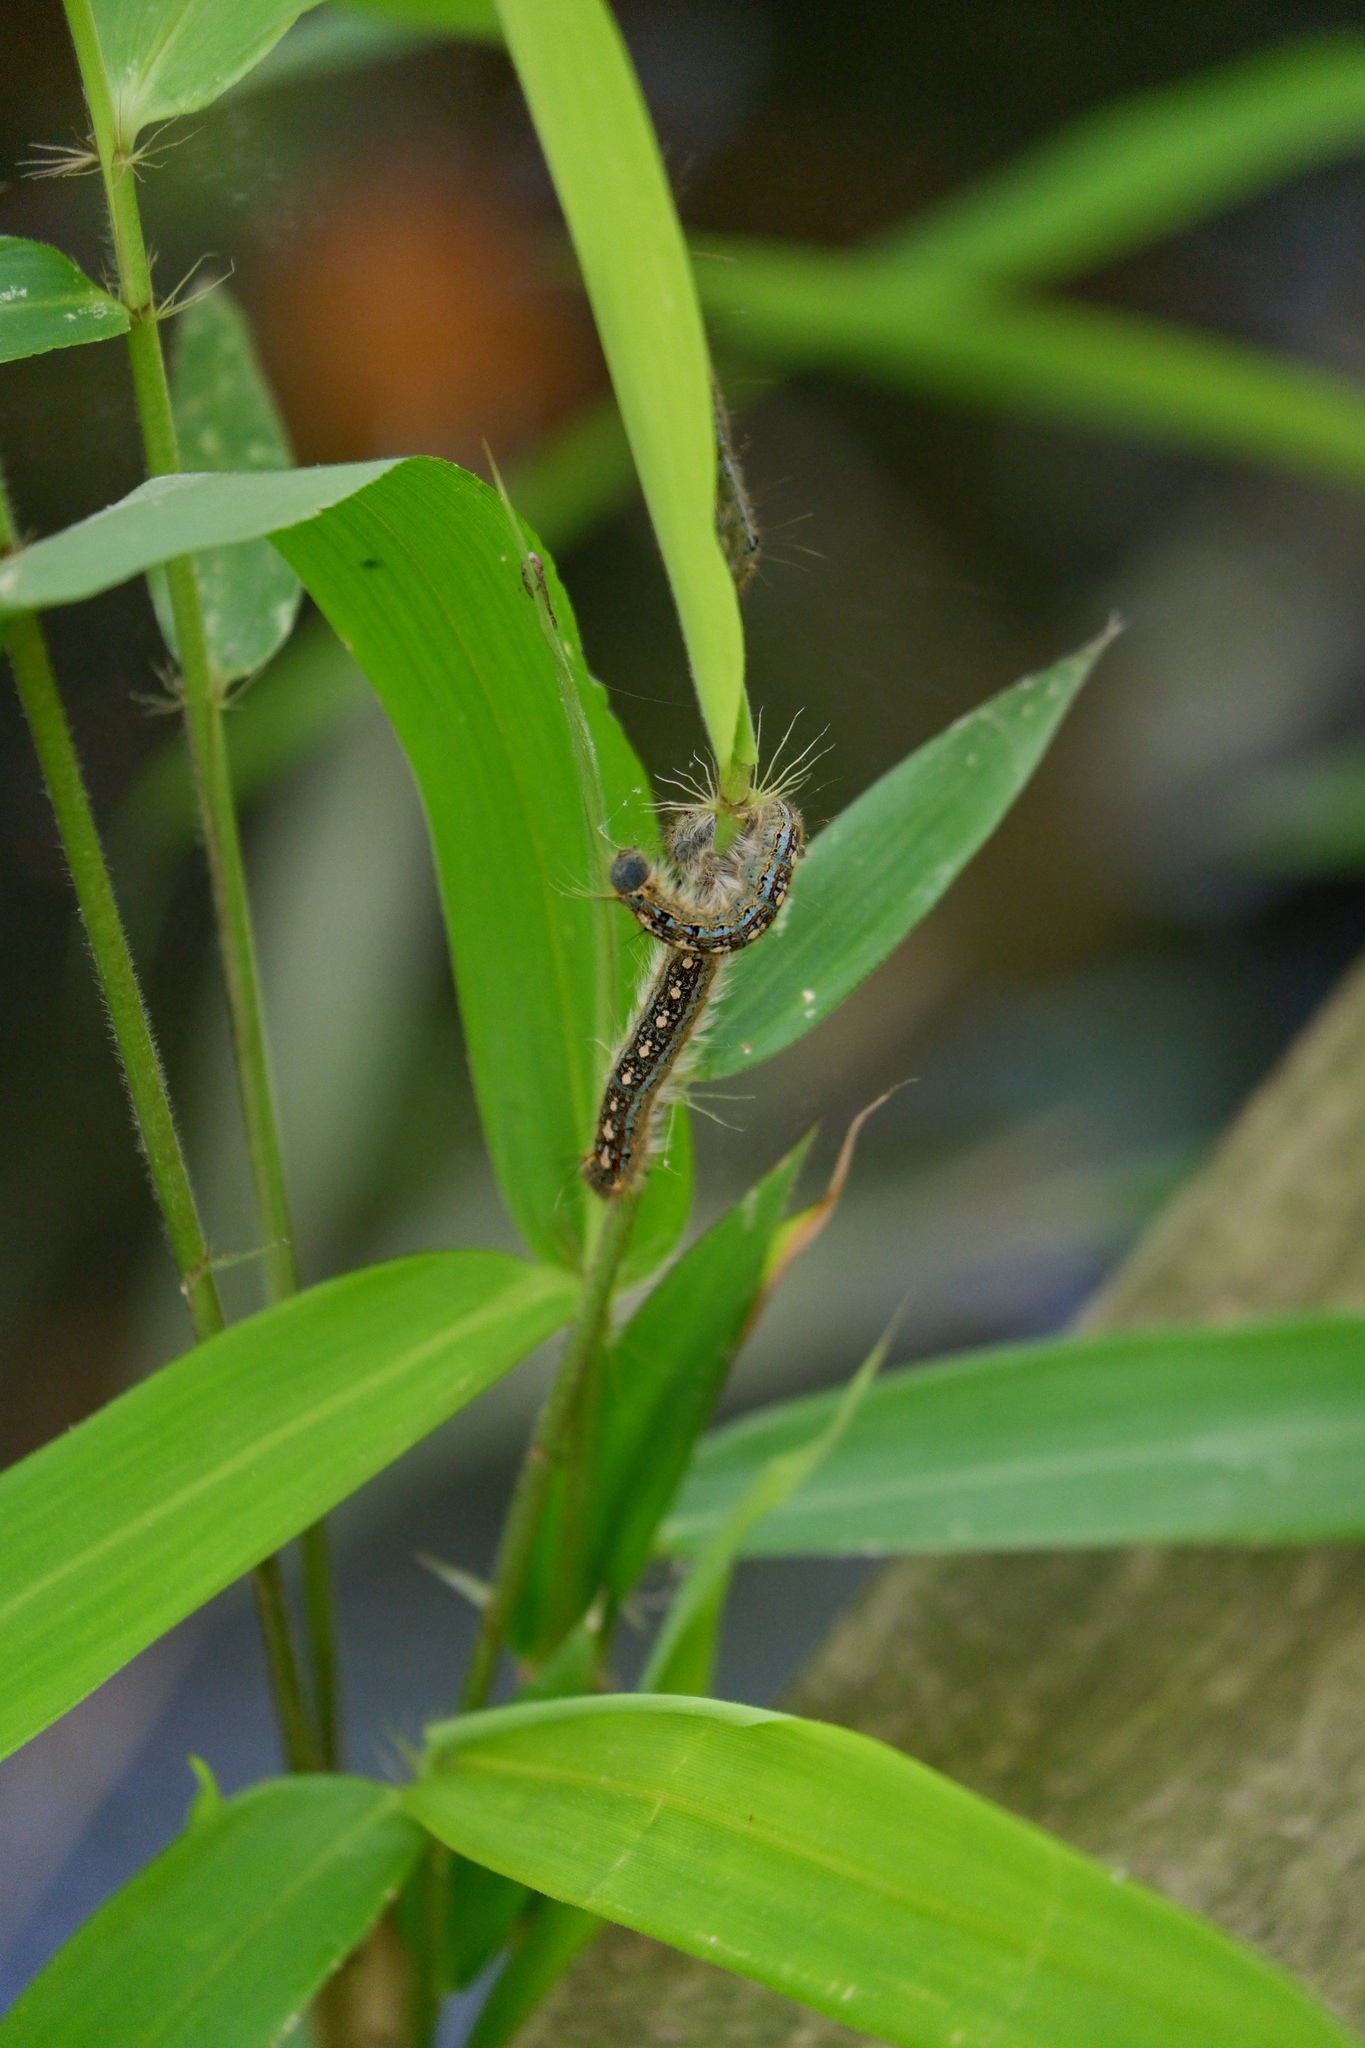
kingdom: Animalia
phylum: Arthropoda
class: Insecta
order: Lepidoptera
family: Lasiocampidae
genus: Malacosoma
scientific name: Malacosoma disstria
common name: Forest tent caterpillar
